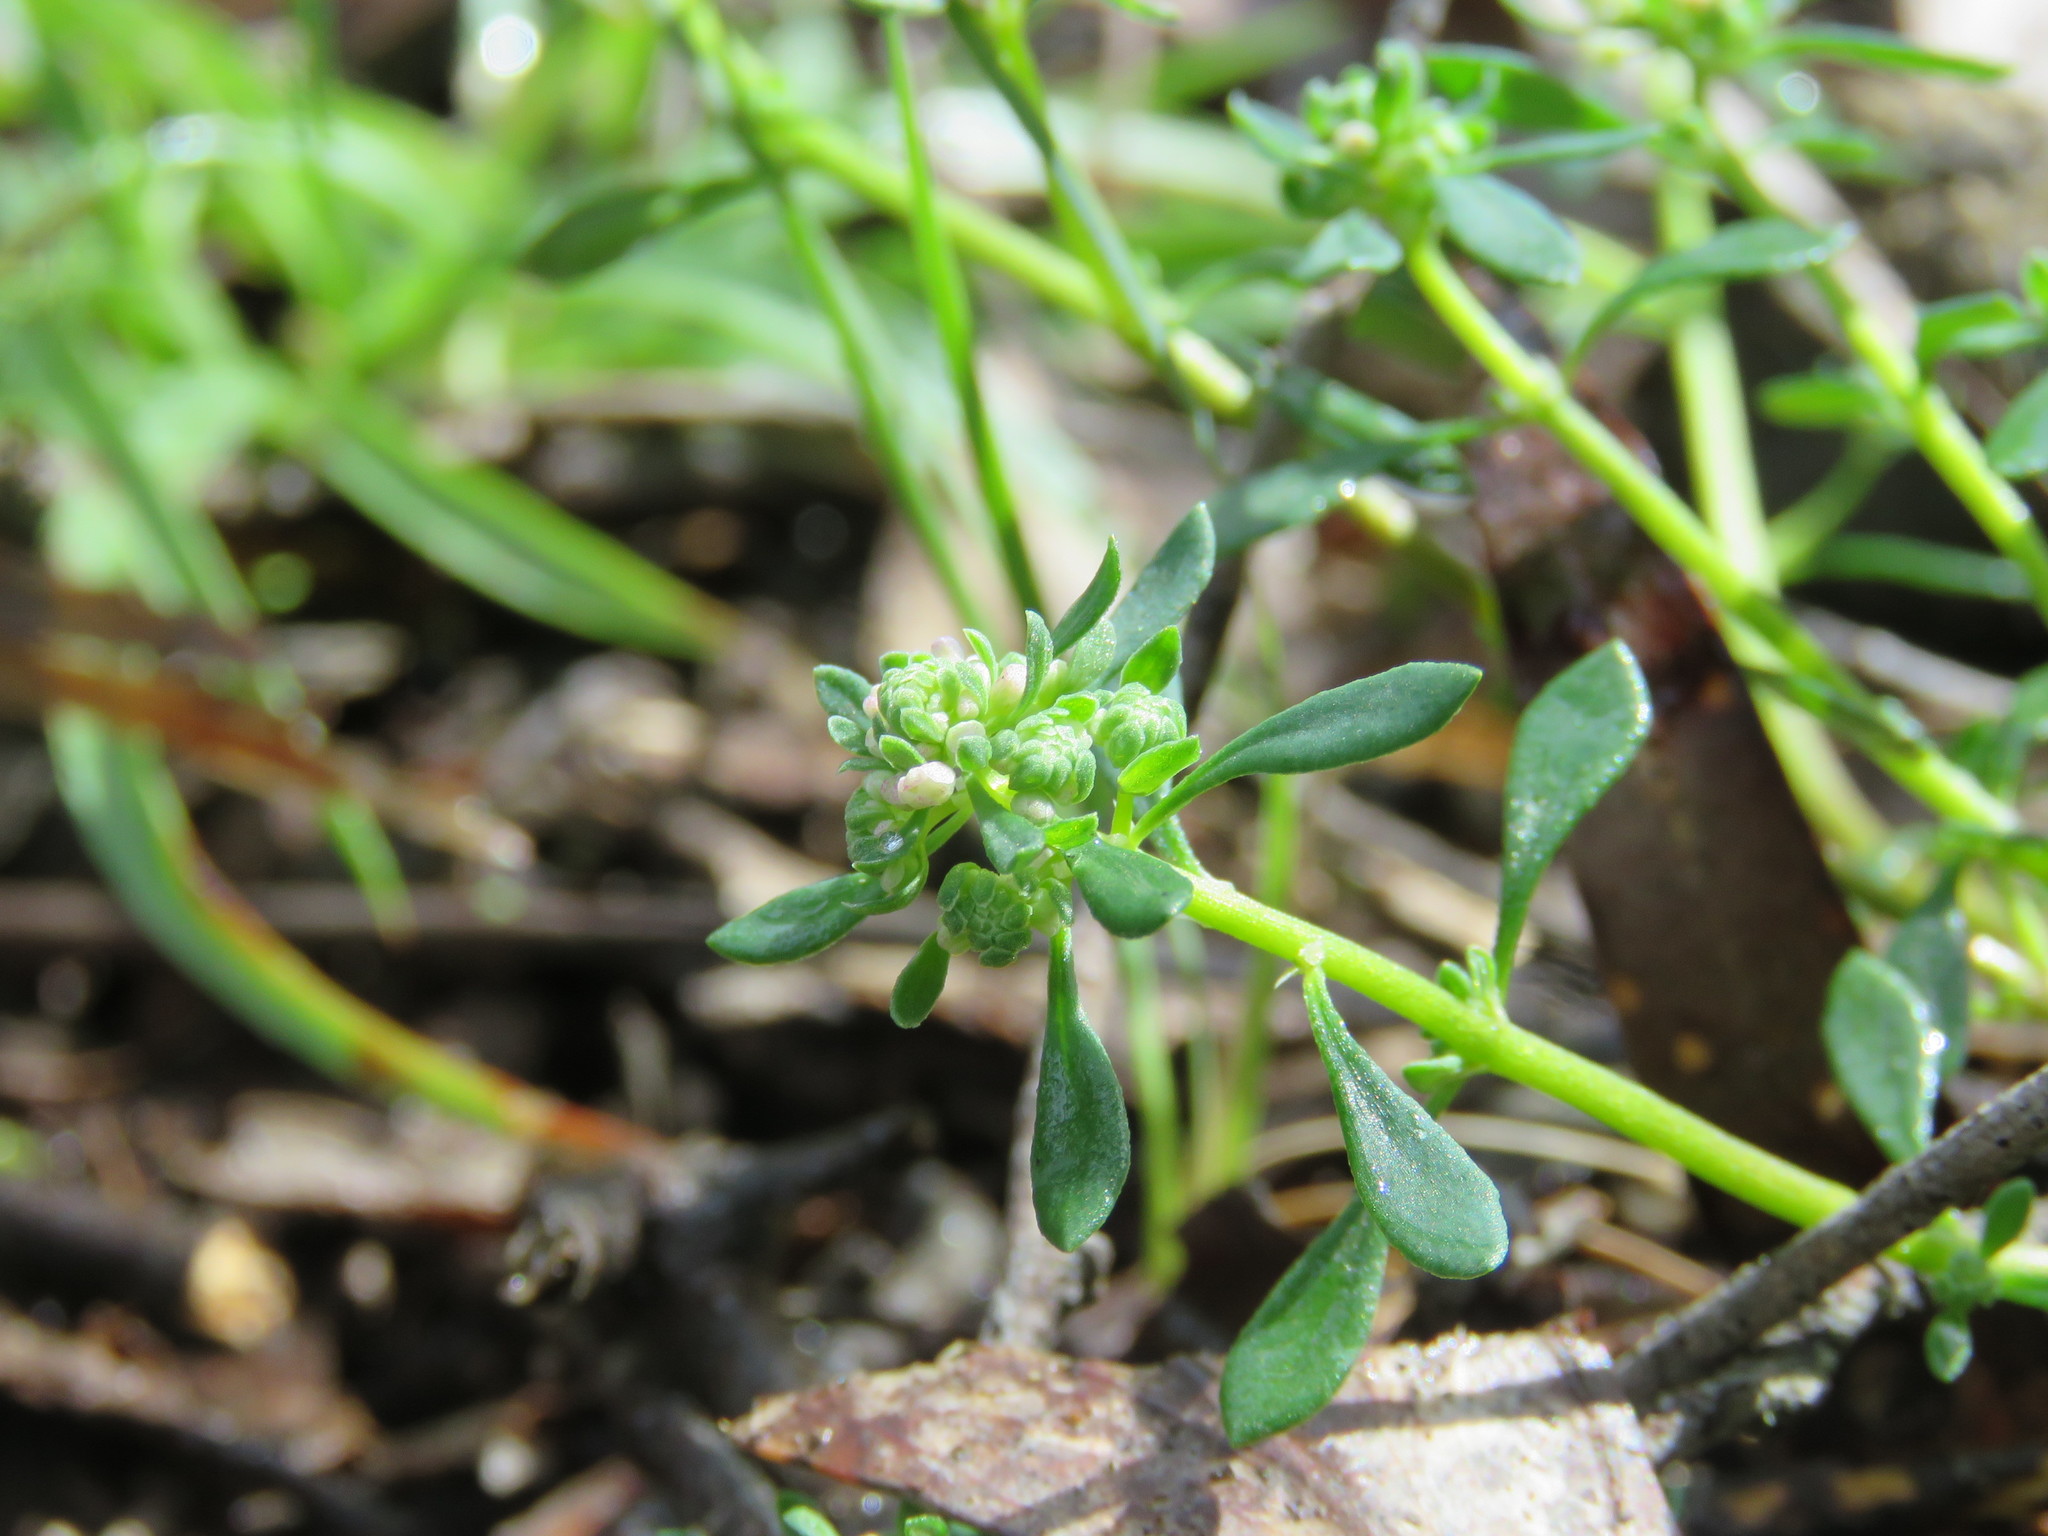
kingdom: Plantae
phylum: Tracheophyta
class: Magnoliopsida
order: Malpighiales
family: Phyllanthaceae
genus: Poranthera
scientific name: Poranthera microphylla
